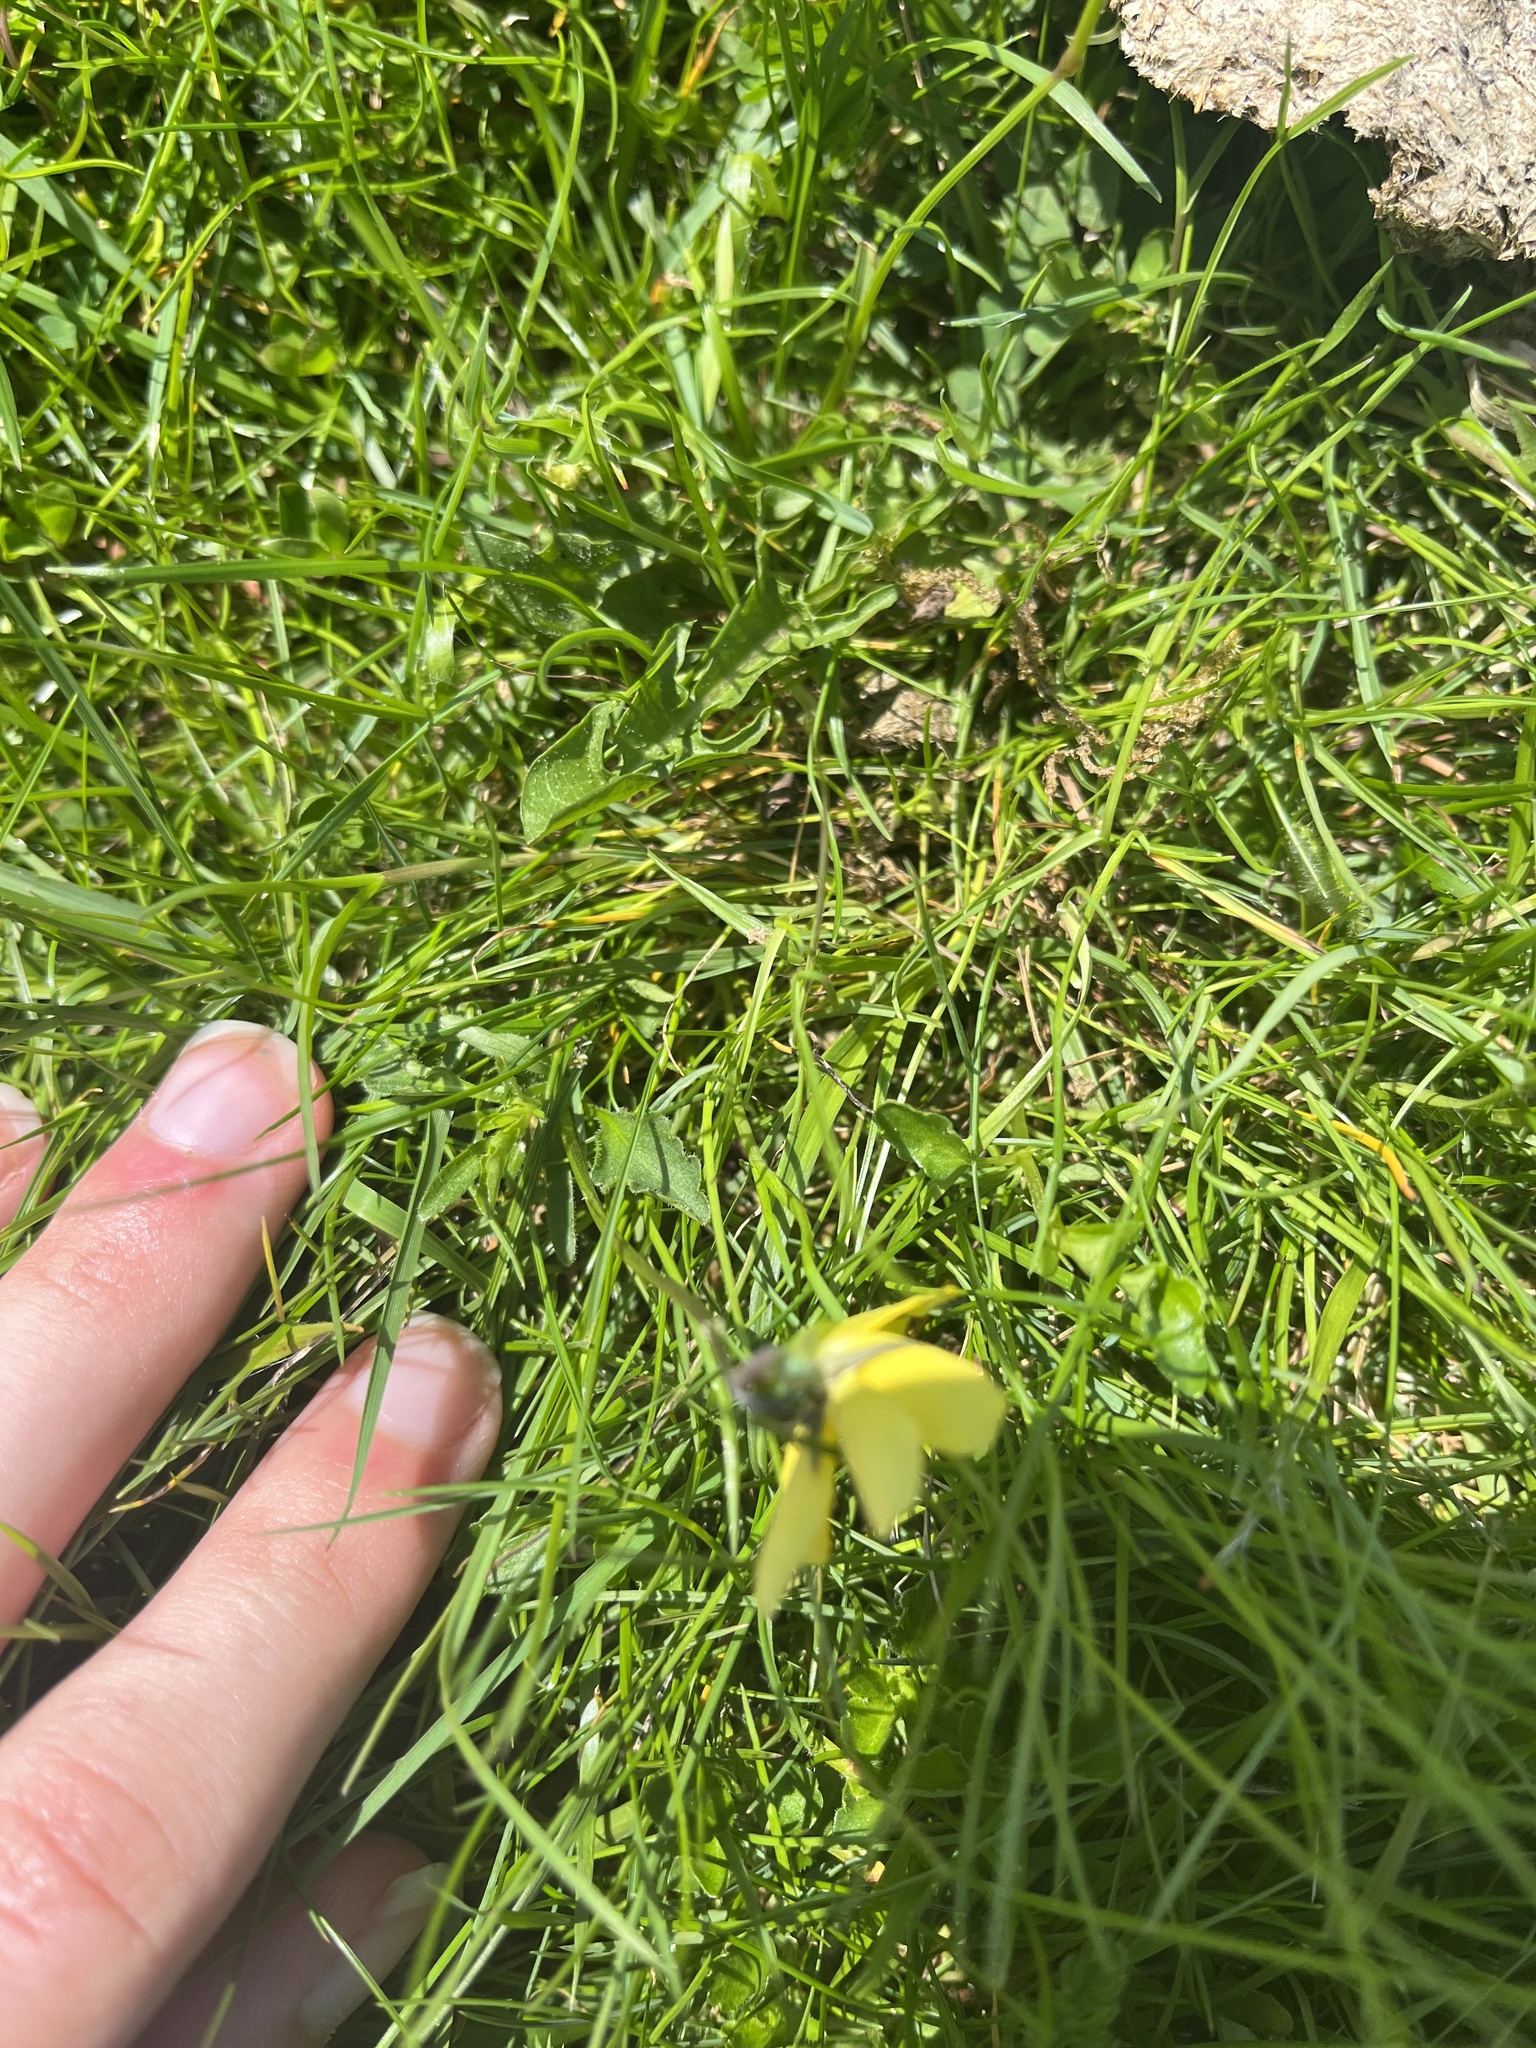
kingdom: Plantae
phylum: Tracheophyta
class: Magnoliopsida
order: Malpighiales
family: Violaceae
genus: Viola
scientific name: Viola lutea
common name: Mountain pansy
